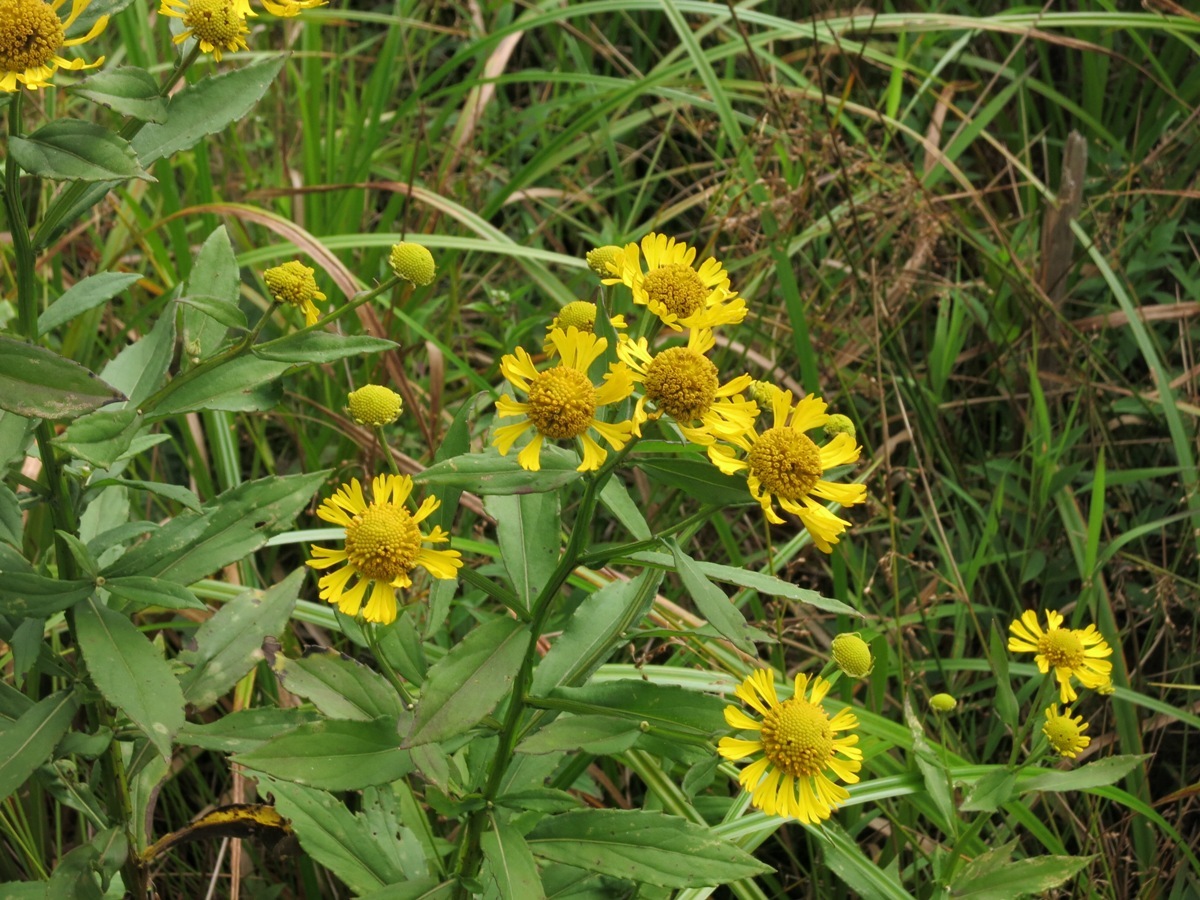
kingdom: Plantae
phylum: Tracheophyta
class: Magnoliopsida
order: Asterales
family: Asteraceae
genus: Helenium
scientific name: Helenium autumnale
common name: Sneezeweed
